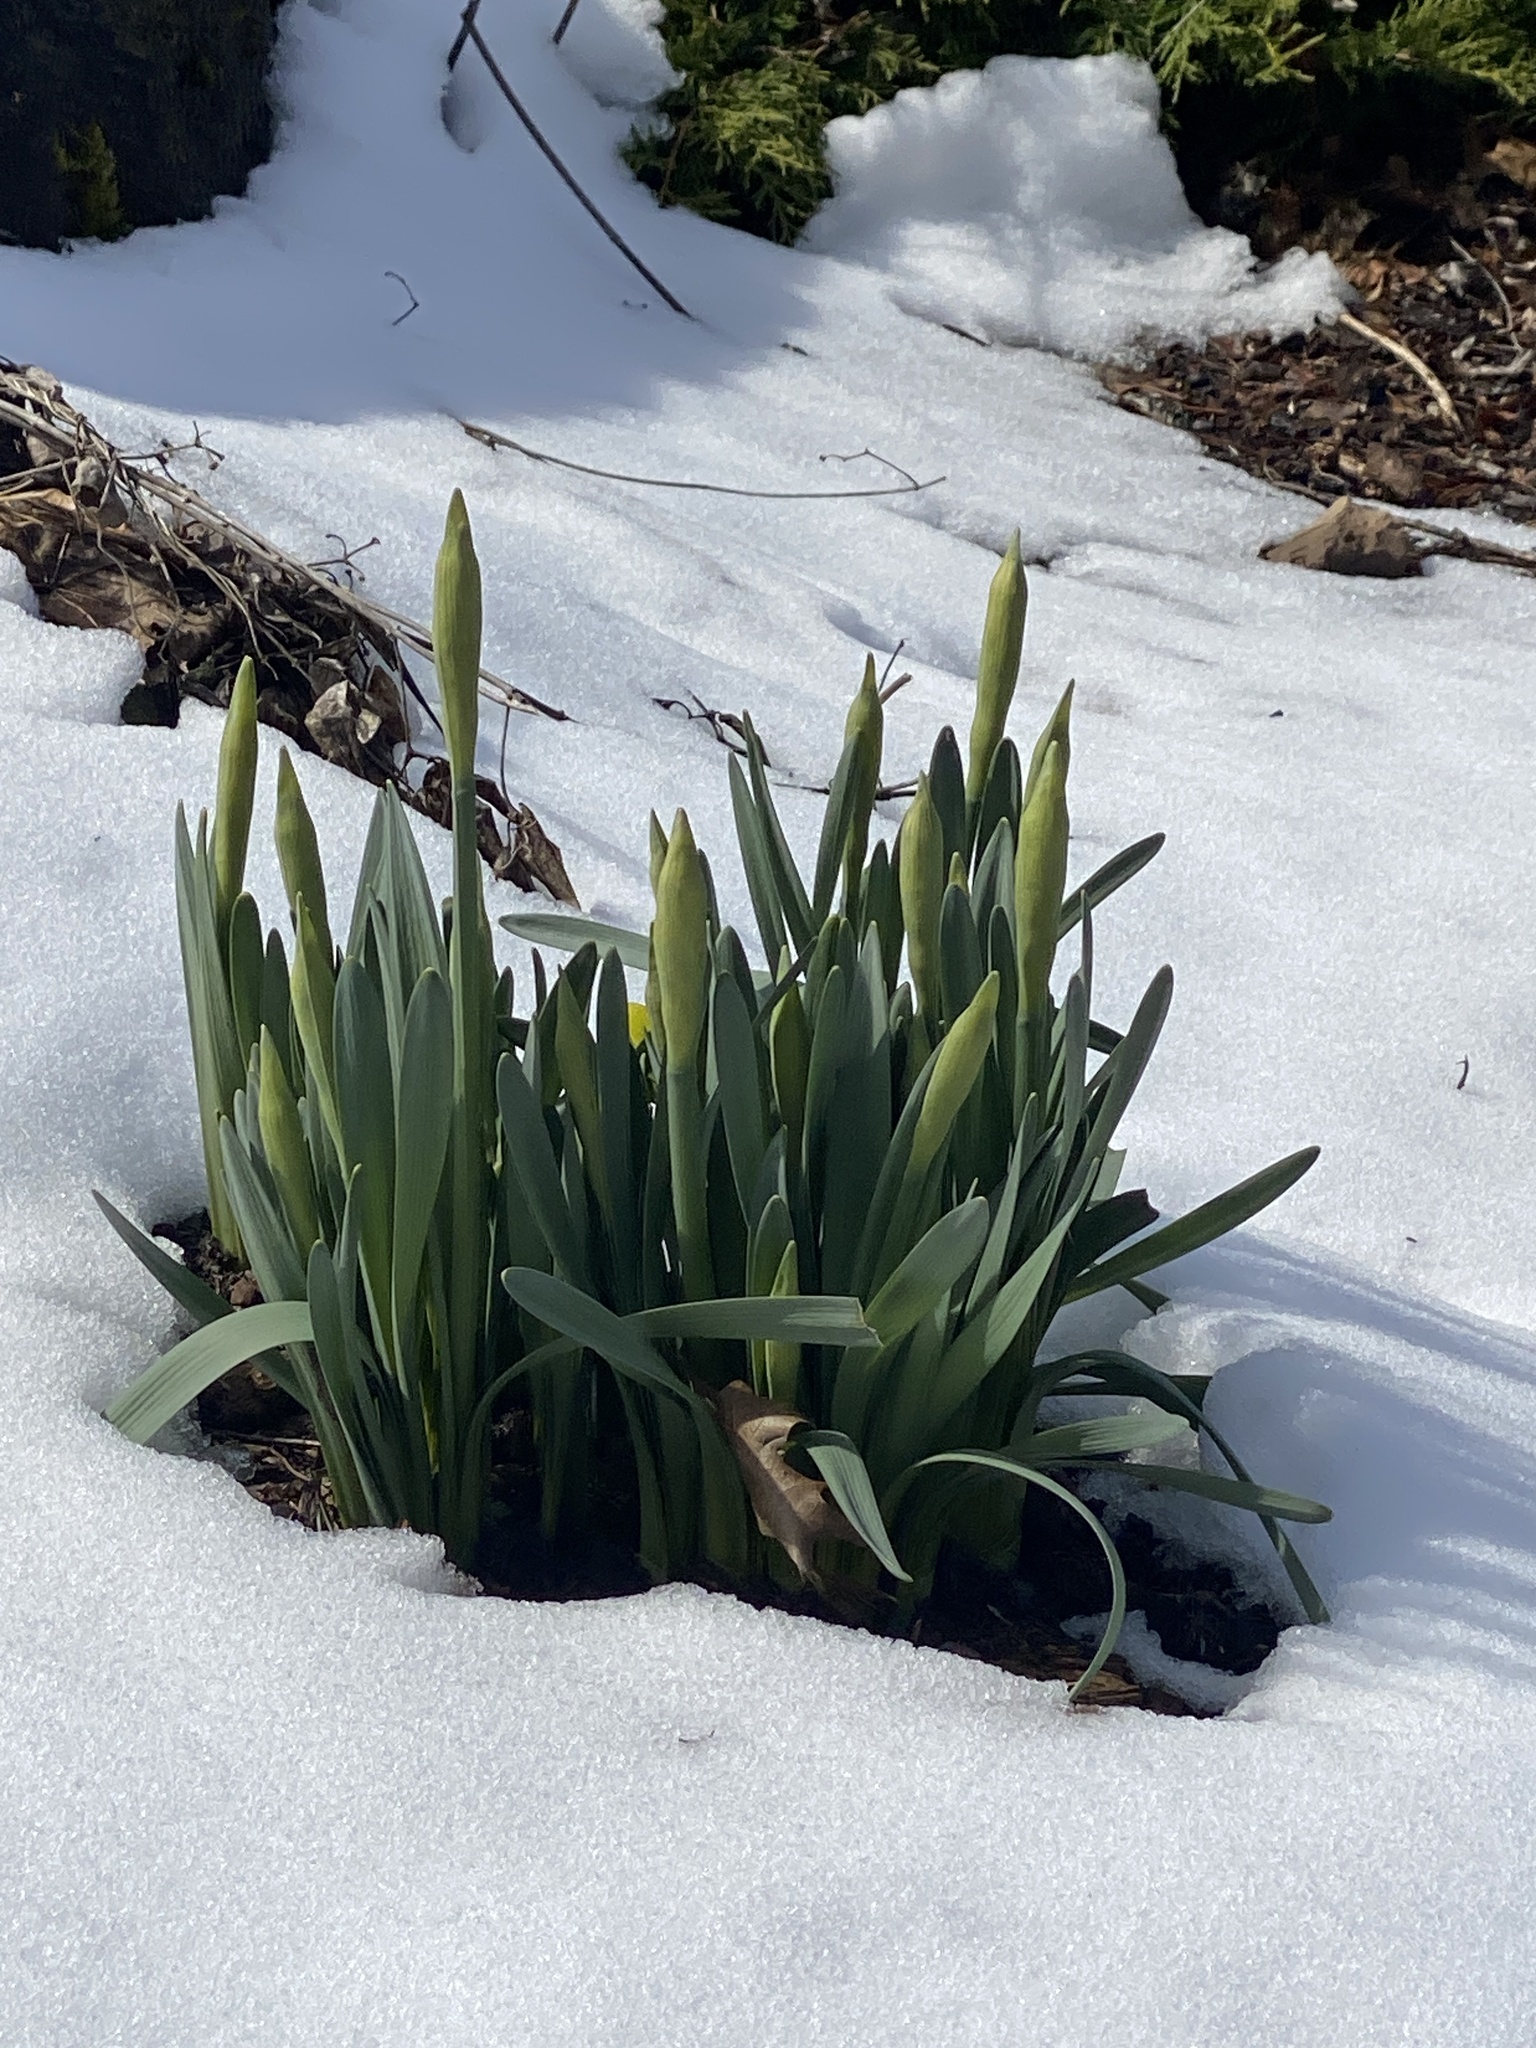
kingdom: Plantae
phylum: Tracheophyta
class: Liliopsida
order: Asparagales
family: Amaryllidaceae
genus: Narcissus
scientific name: Narcissus
